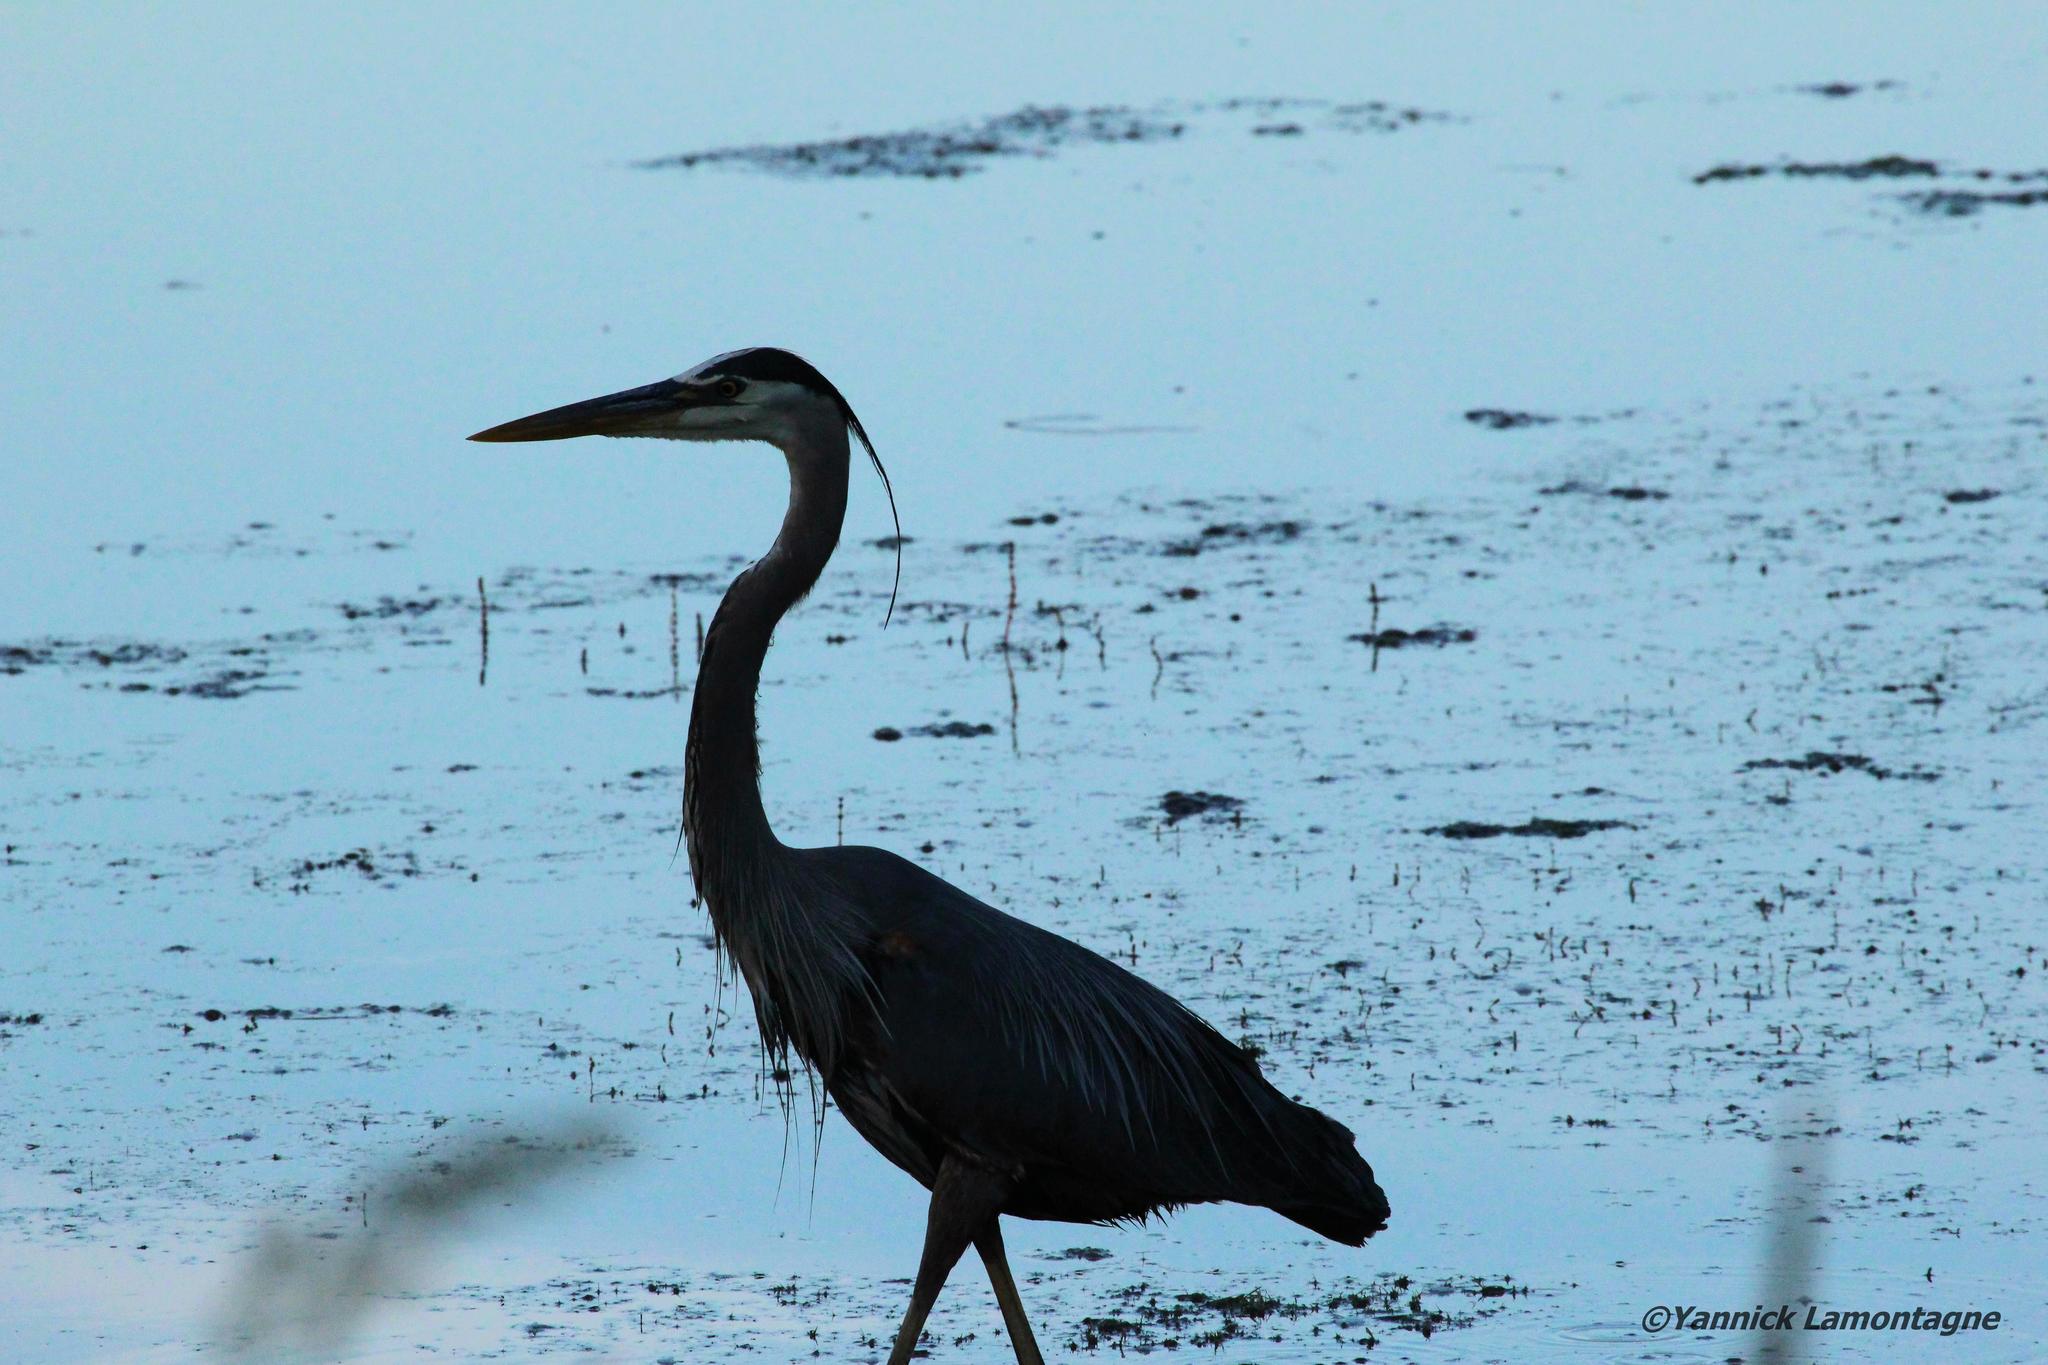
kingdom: Animalia
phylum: Chordata
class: Aves
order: Pelecaniformes
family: Ardeidae
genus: Ardea
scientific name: Ardea herodias
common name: Great blue heron
